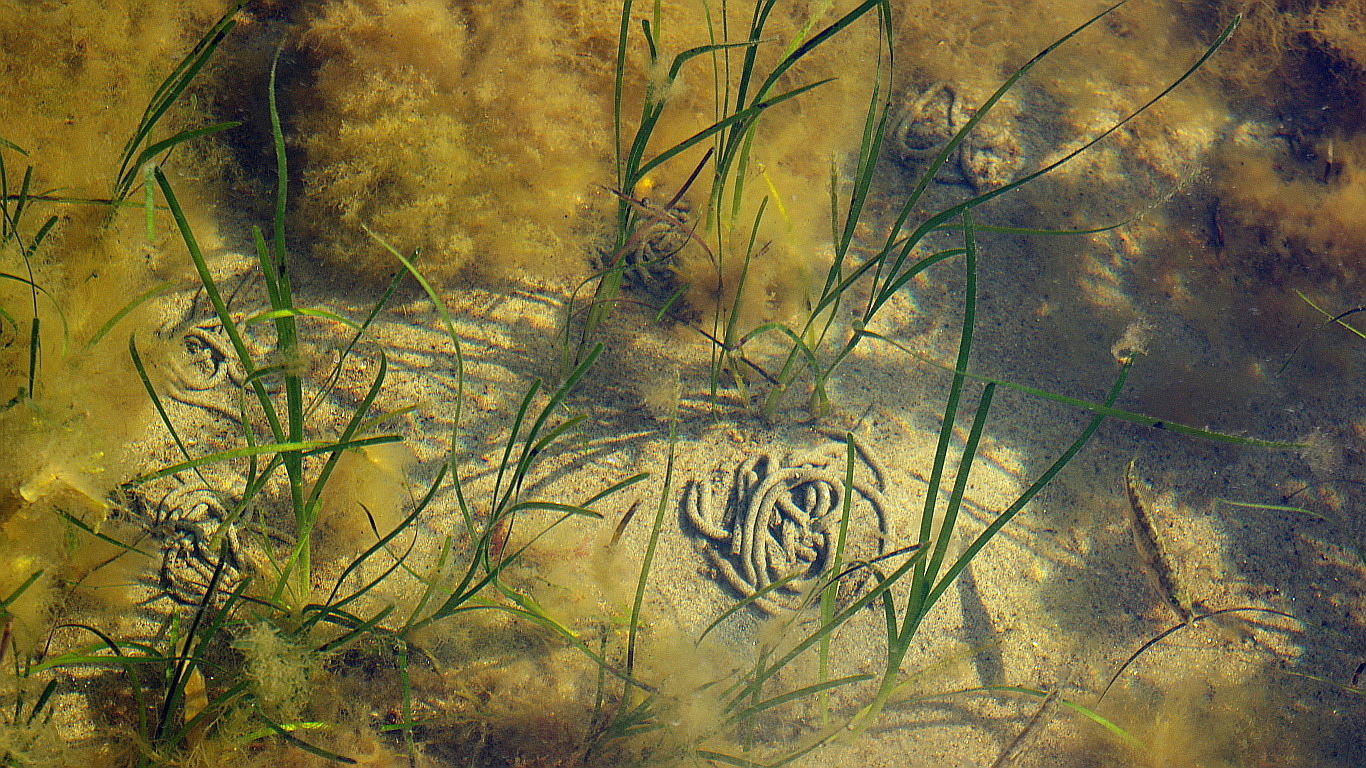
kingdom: Plantae
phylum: Tracheophyta
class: Liliopsida
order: Alismatales
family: Zosteraceae
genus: Zostera
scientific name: Zostera marina
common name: Eelgrass
